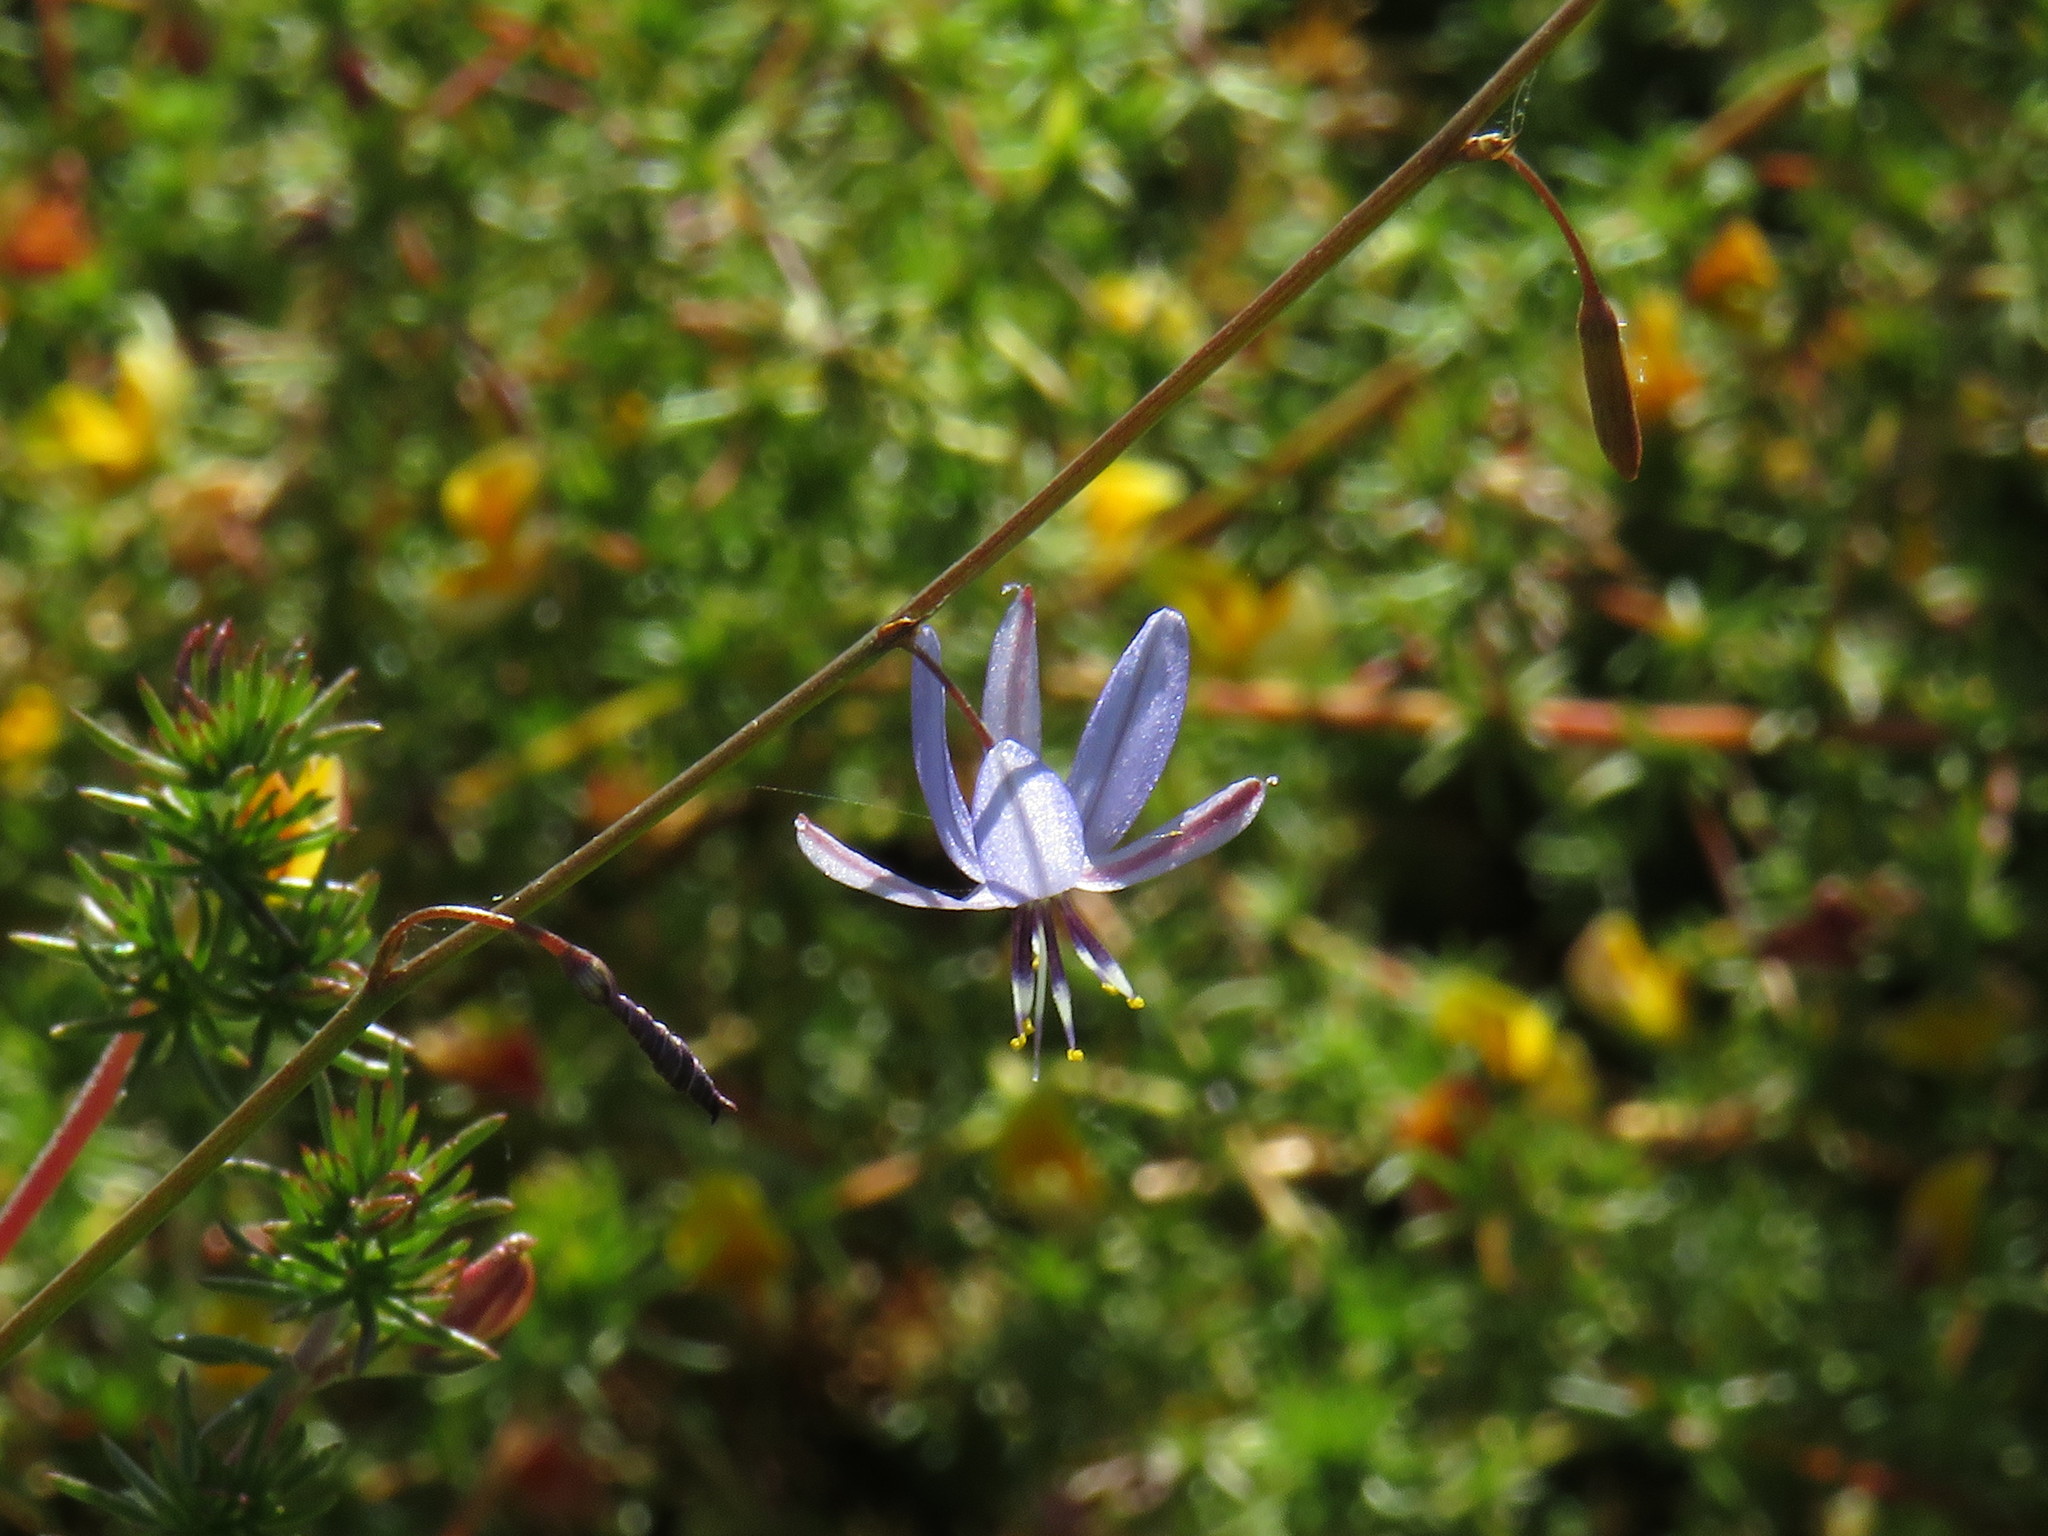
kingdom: Plantae
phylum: Tracheophyta
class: Liliopsida
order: Asparagales
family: Asphodelaceae
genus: Caesia
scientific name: Caesia contorta
